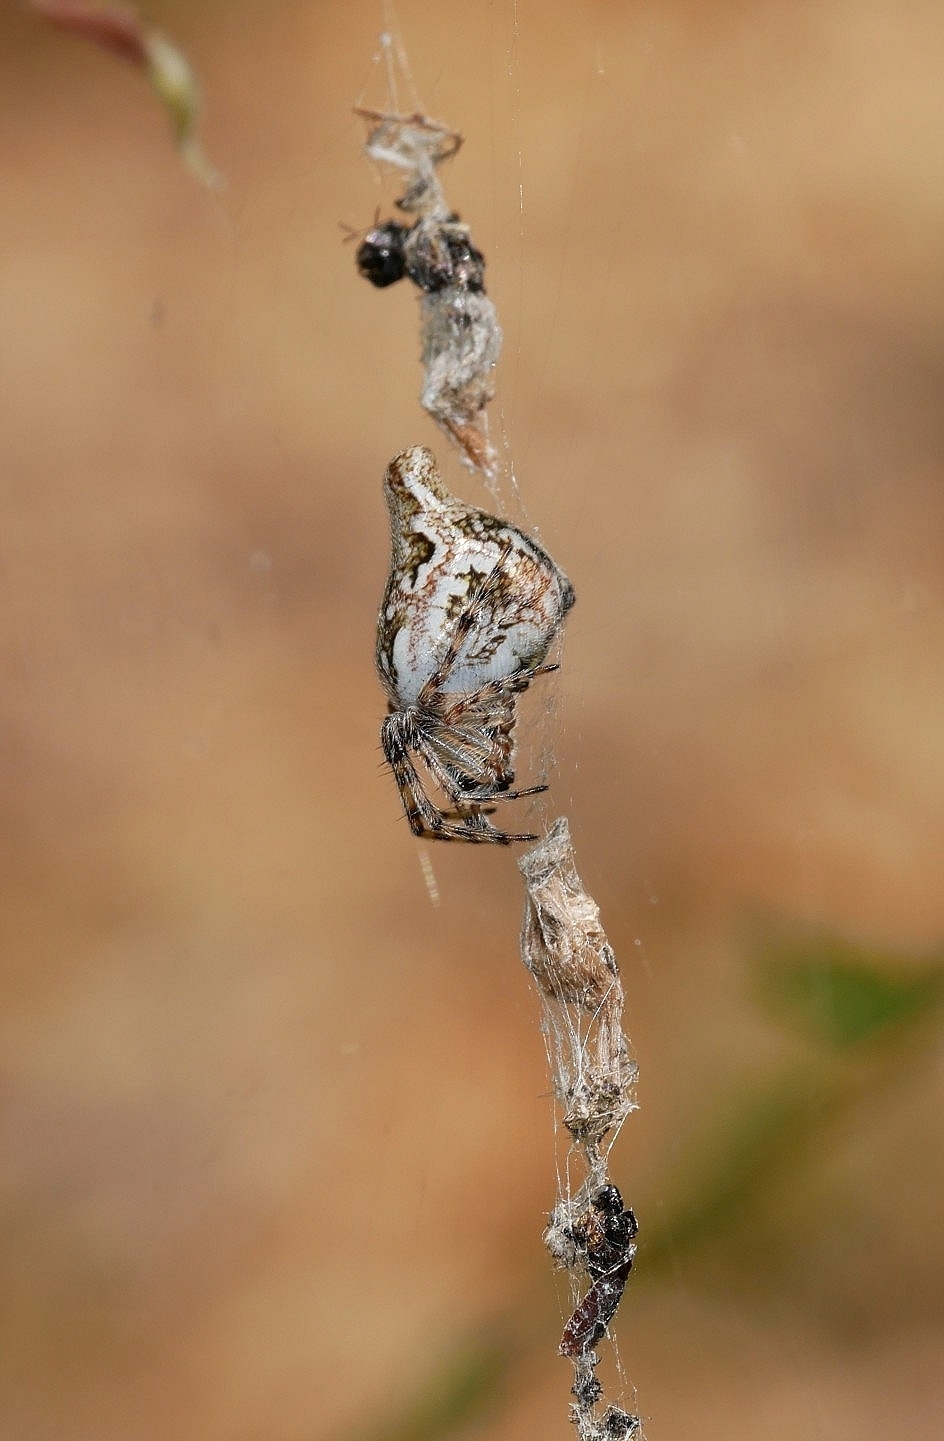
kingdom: Animalia
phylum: Arthropoda
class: Arachnida
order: Araneae
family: Araneidae
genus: Cyclosa
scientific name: Cyclosa conica
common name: Conical trashline orbweaver
